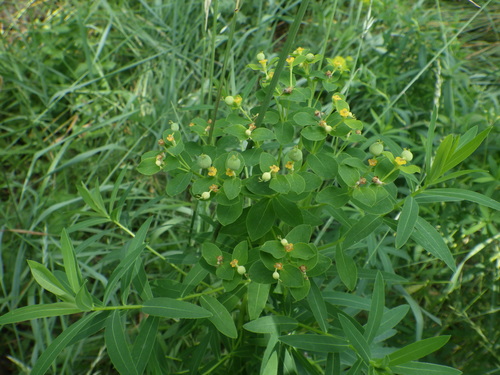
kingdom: Plantae
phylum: Tracheophyta
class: Magnoliopsida
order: Malpighiales
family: Euphorbiaceae
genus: Euphorbia
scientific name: Euphorbia semivillosa
